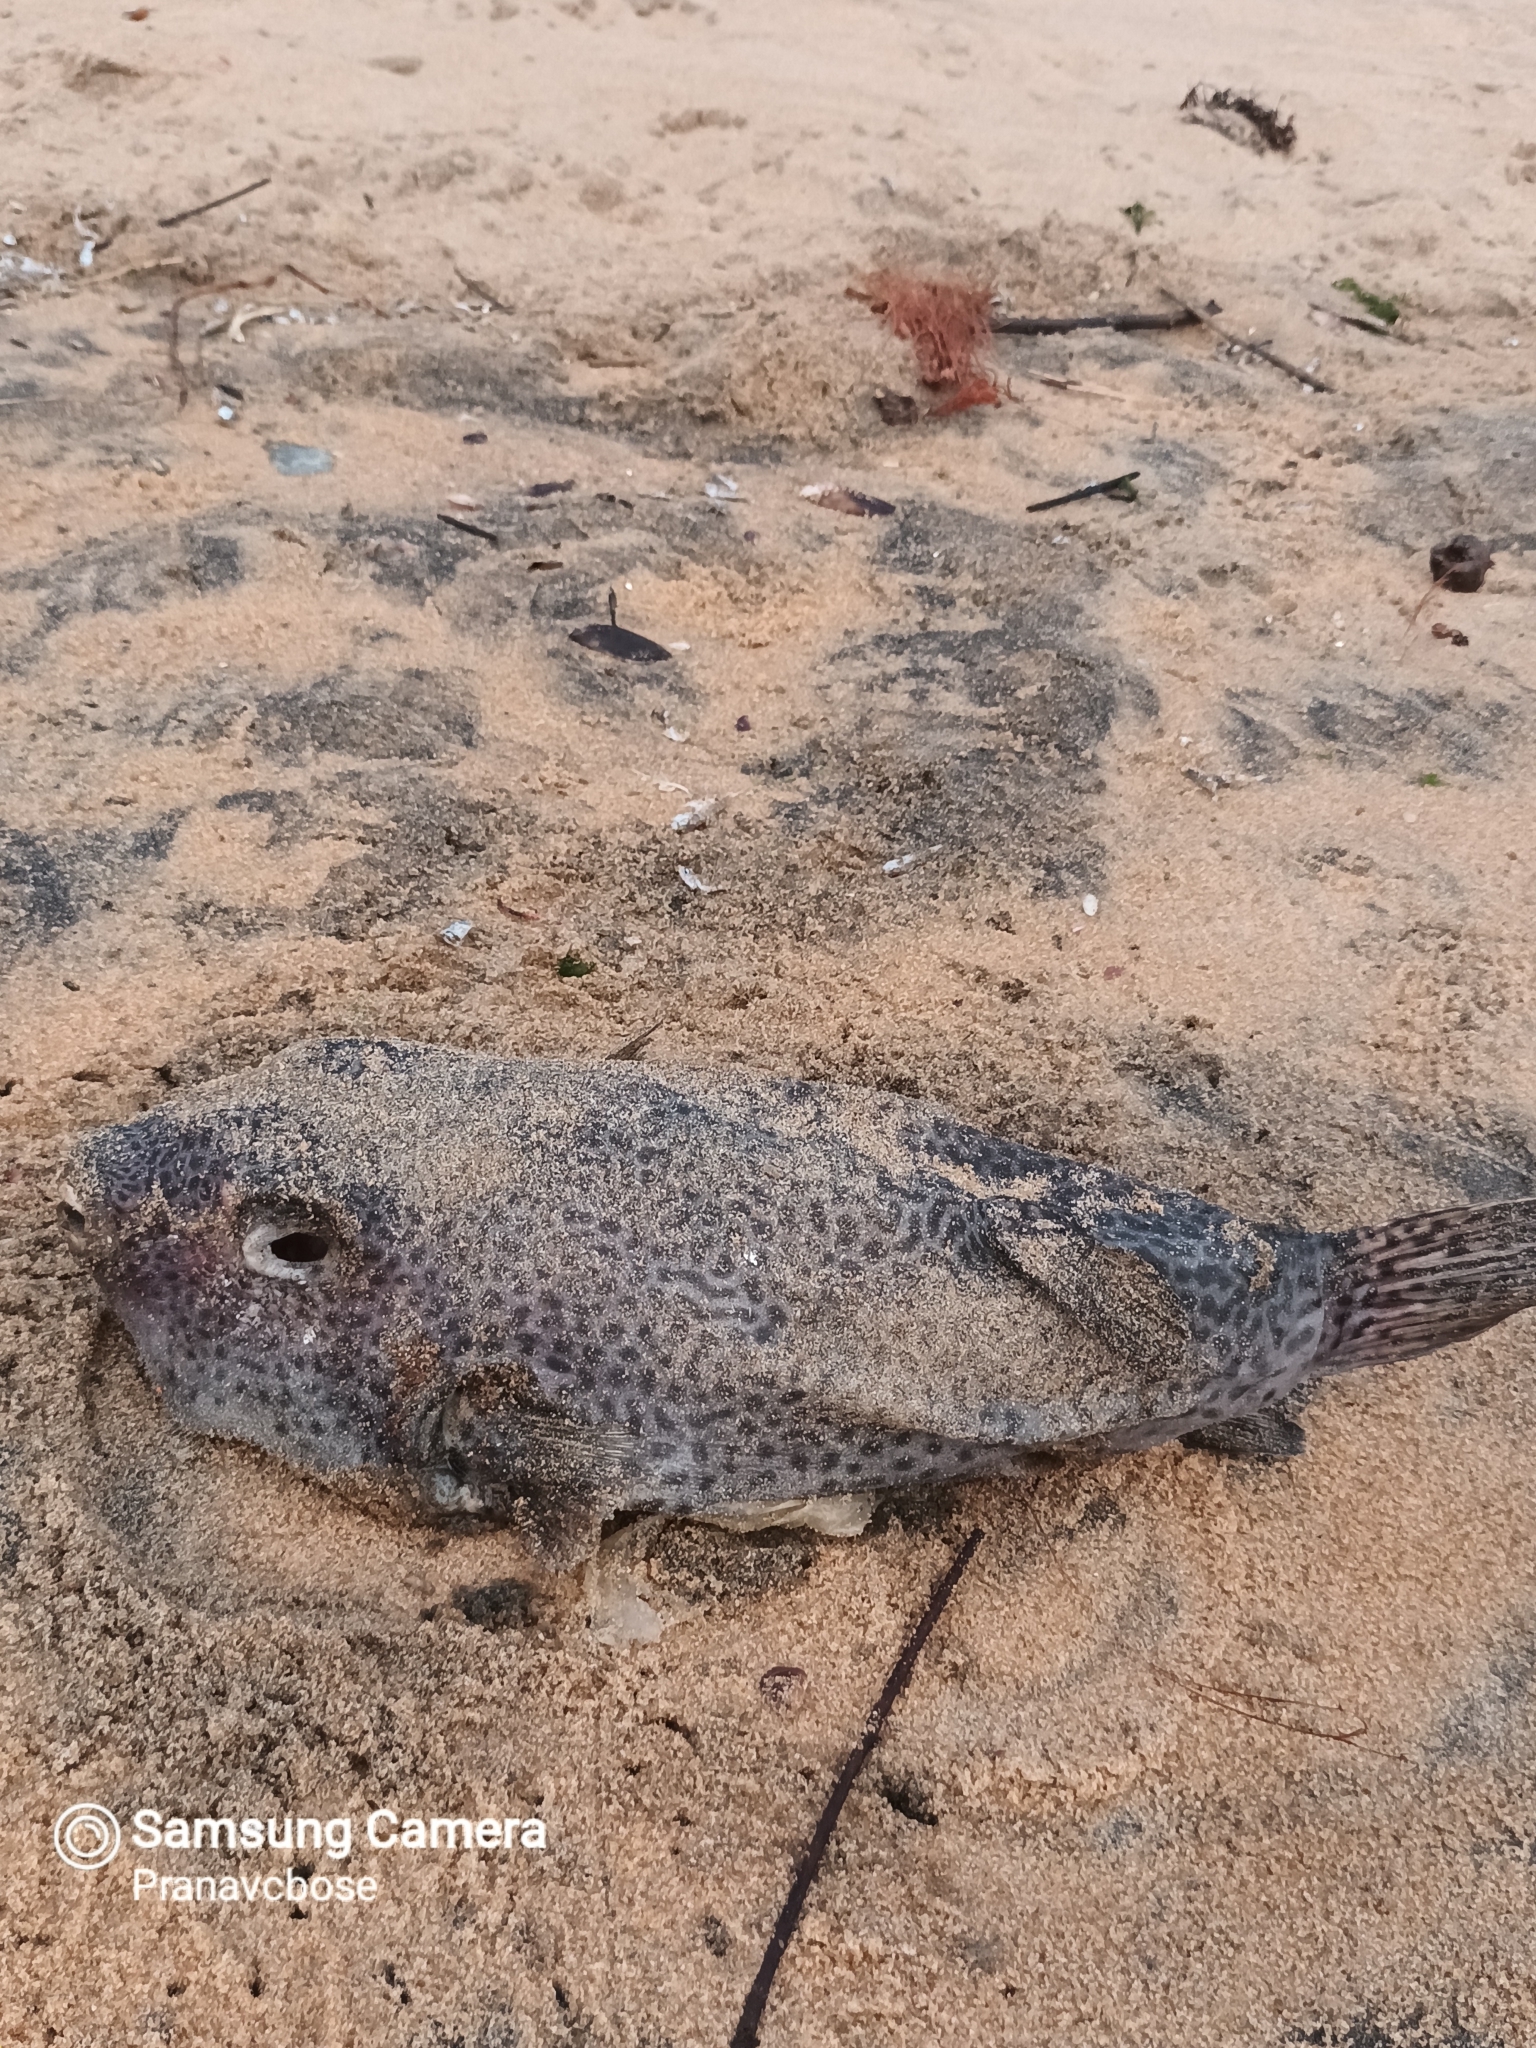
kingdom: Animalia
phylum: Chordata
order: Tetraodontiformes
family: Tetraodontidae
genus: Arothron
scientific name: Arothron stellatus
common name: Star blaasop
